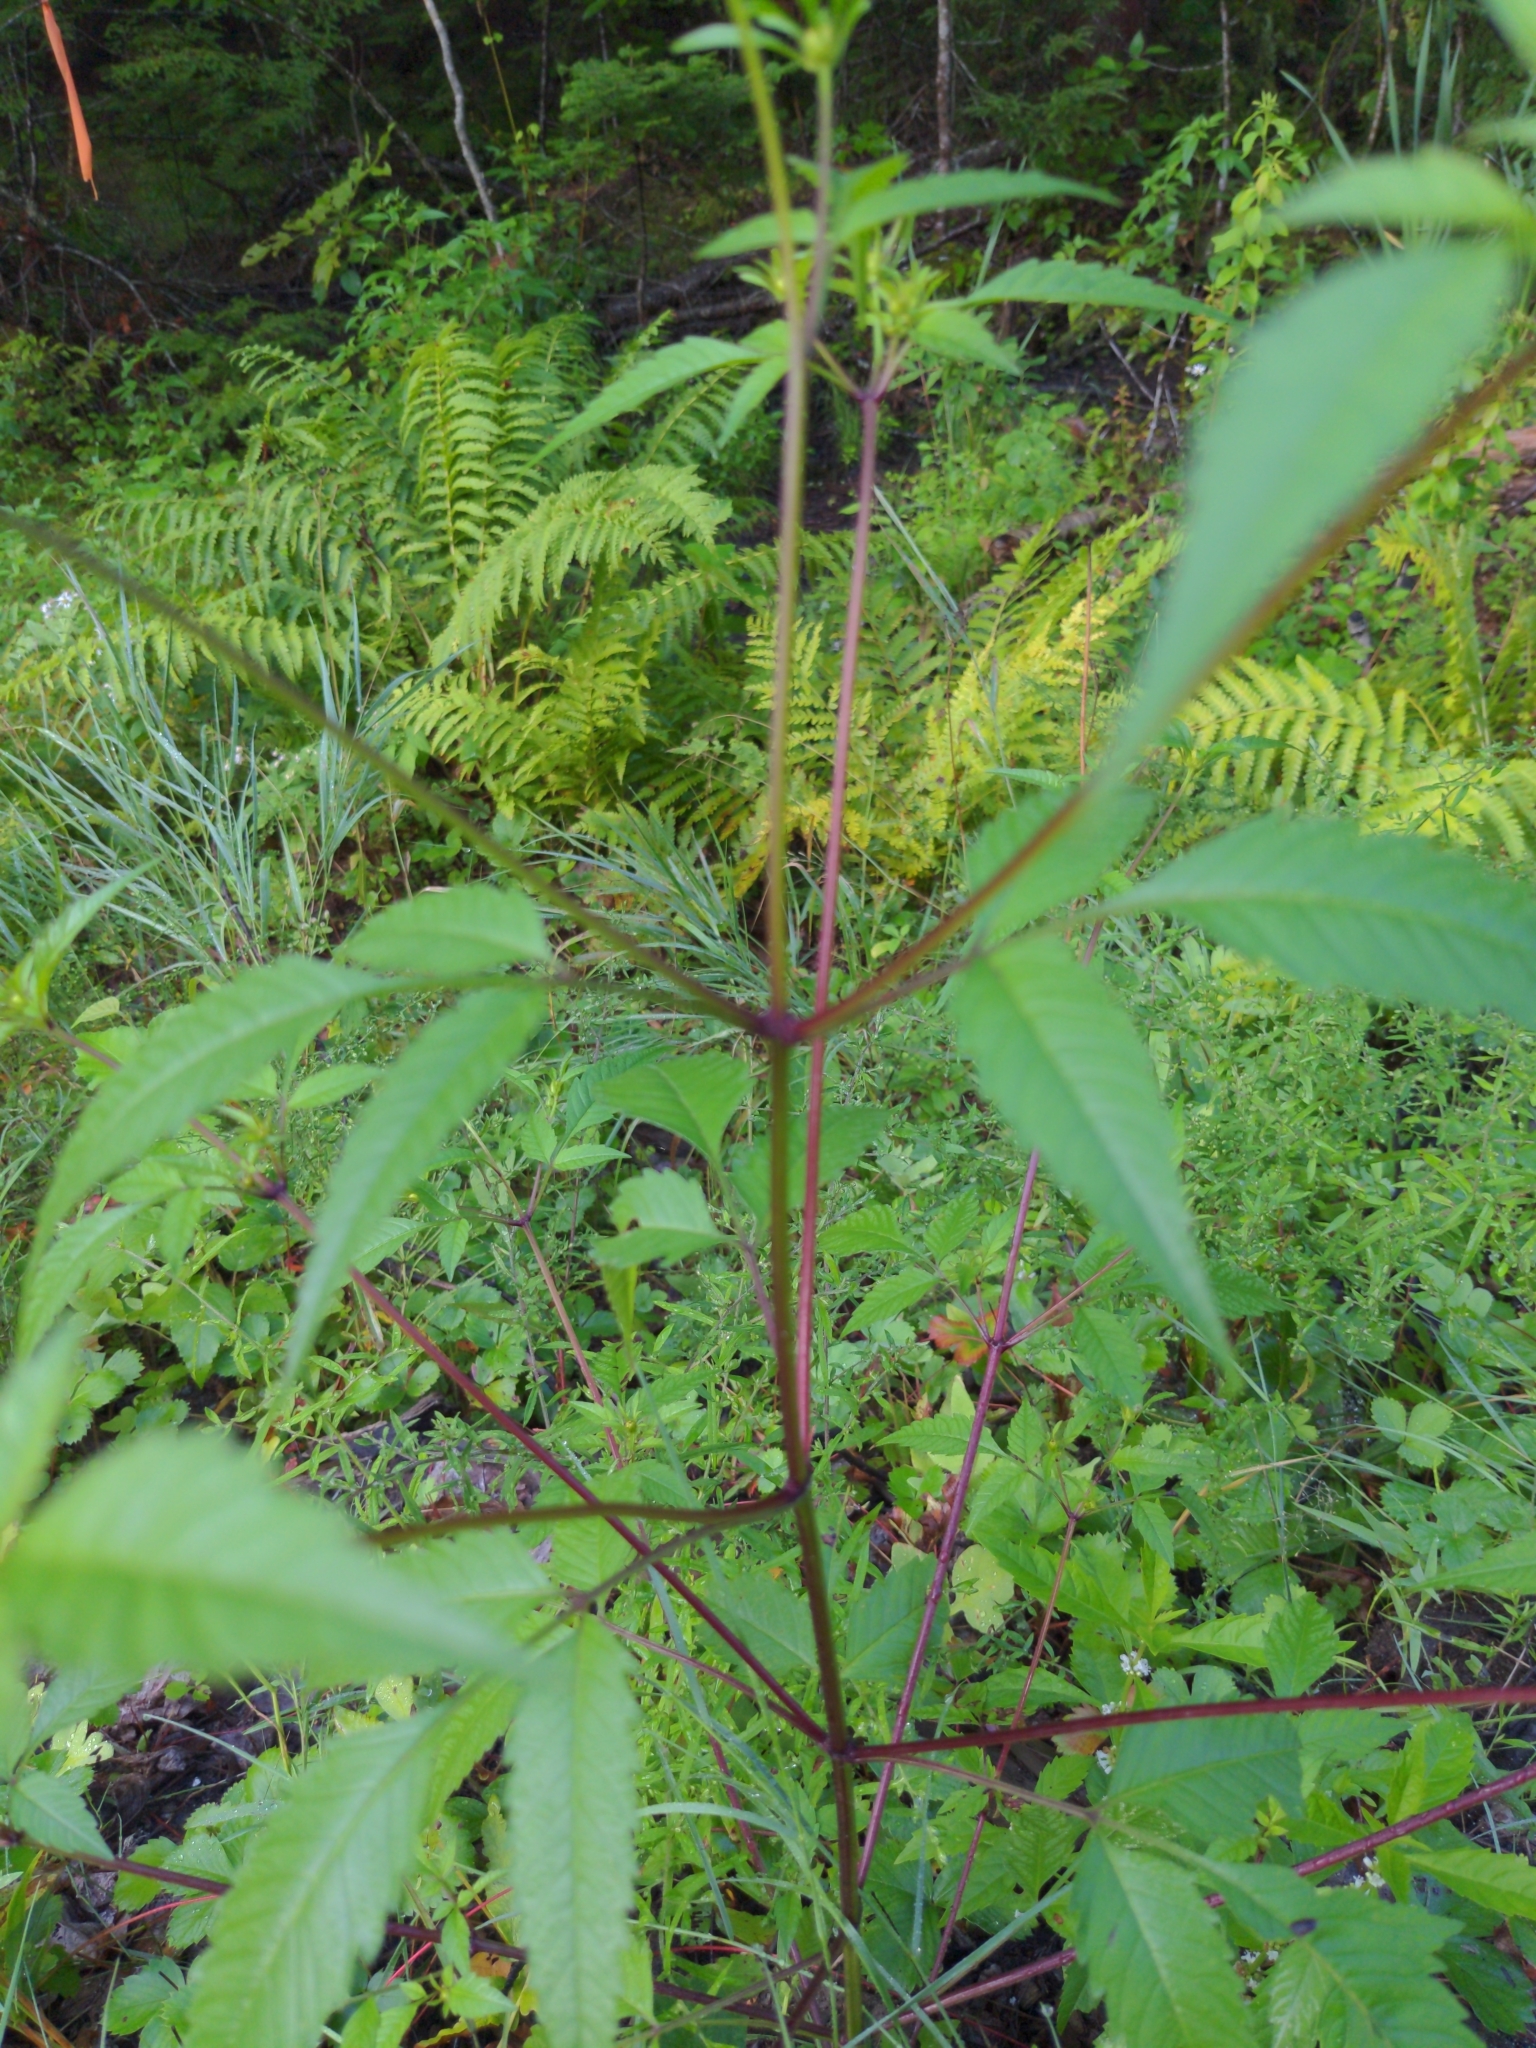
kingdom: Plantae
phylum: Tracheophyta
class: Magnoliopsida
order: Asterales
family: Asteraceae
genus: Bidens
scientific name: Bidens frondosa
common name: Beggarticks
